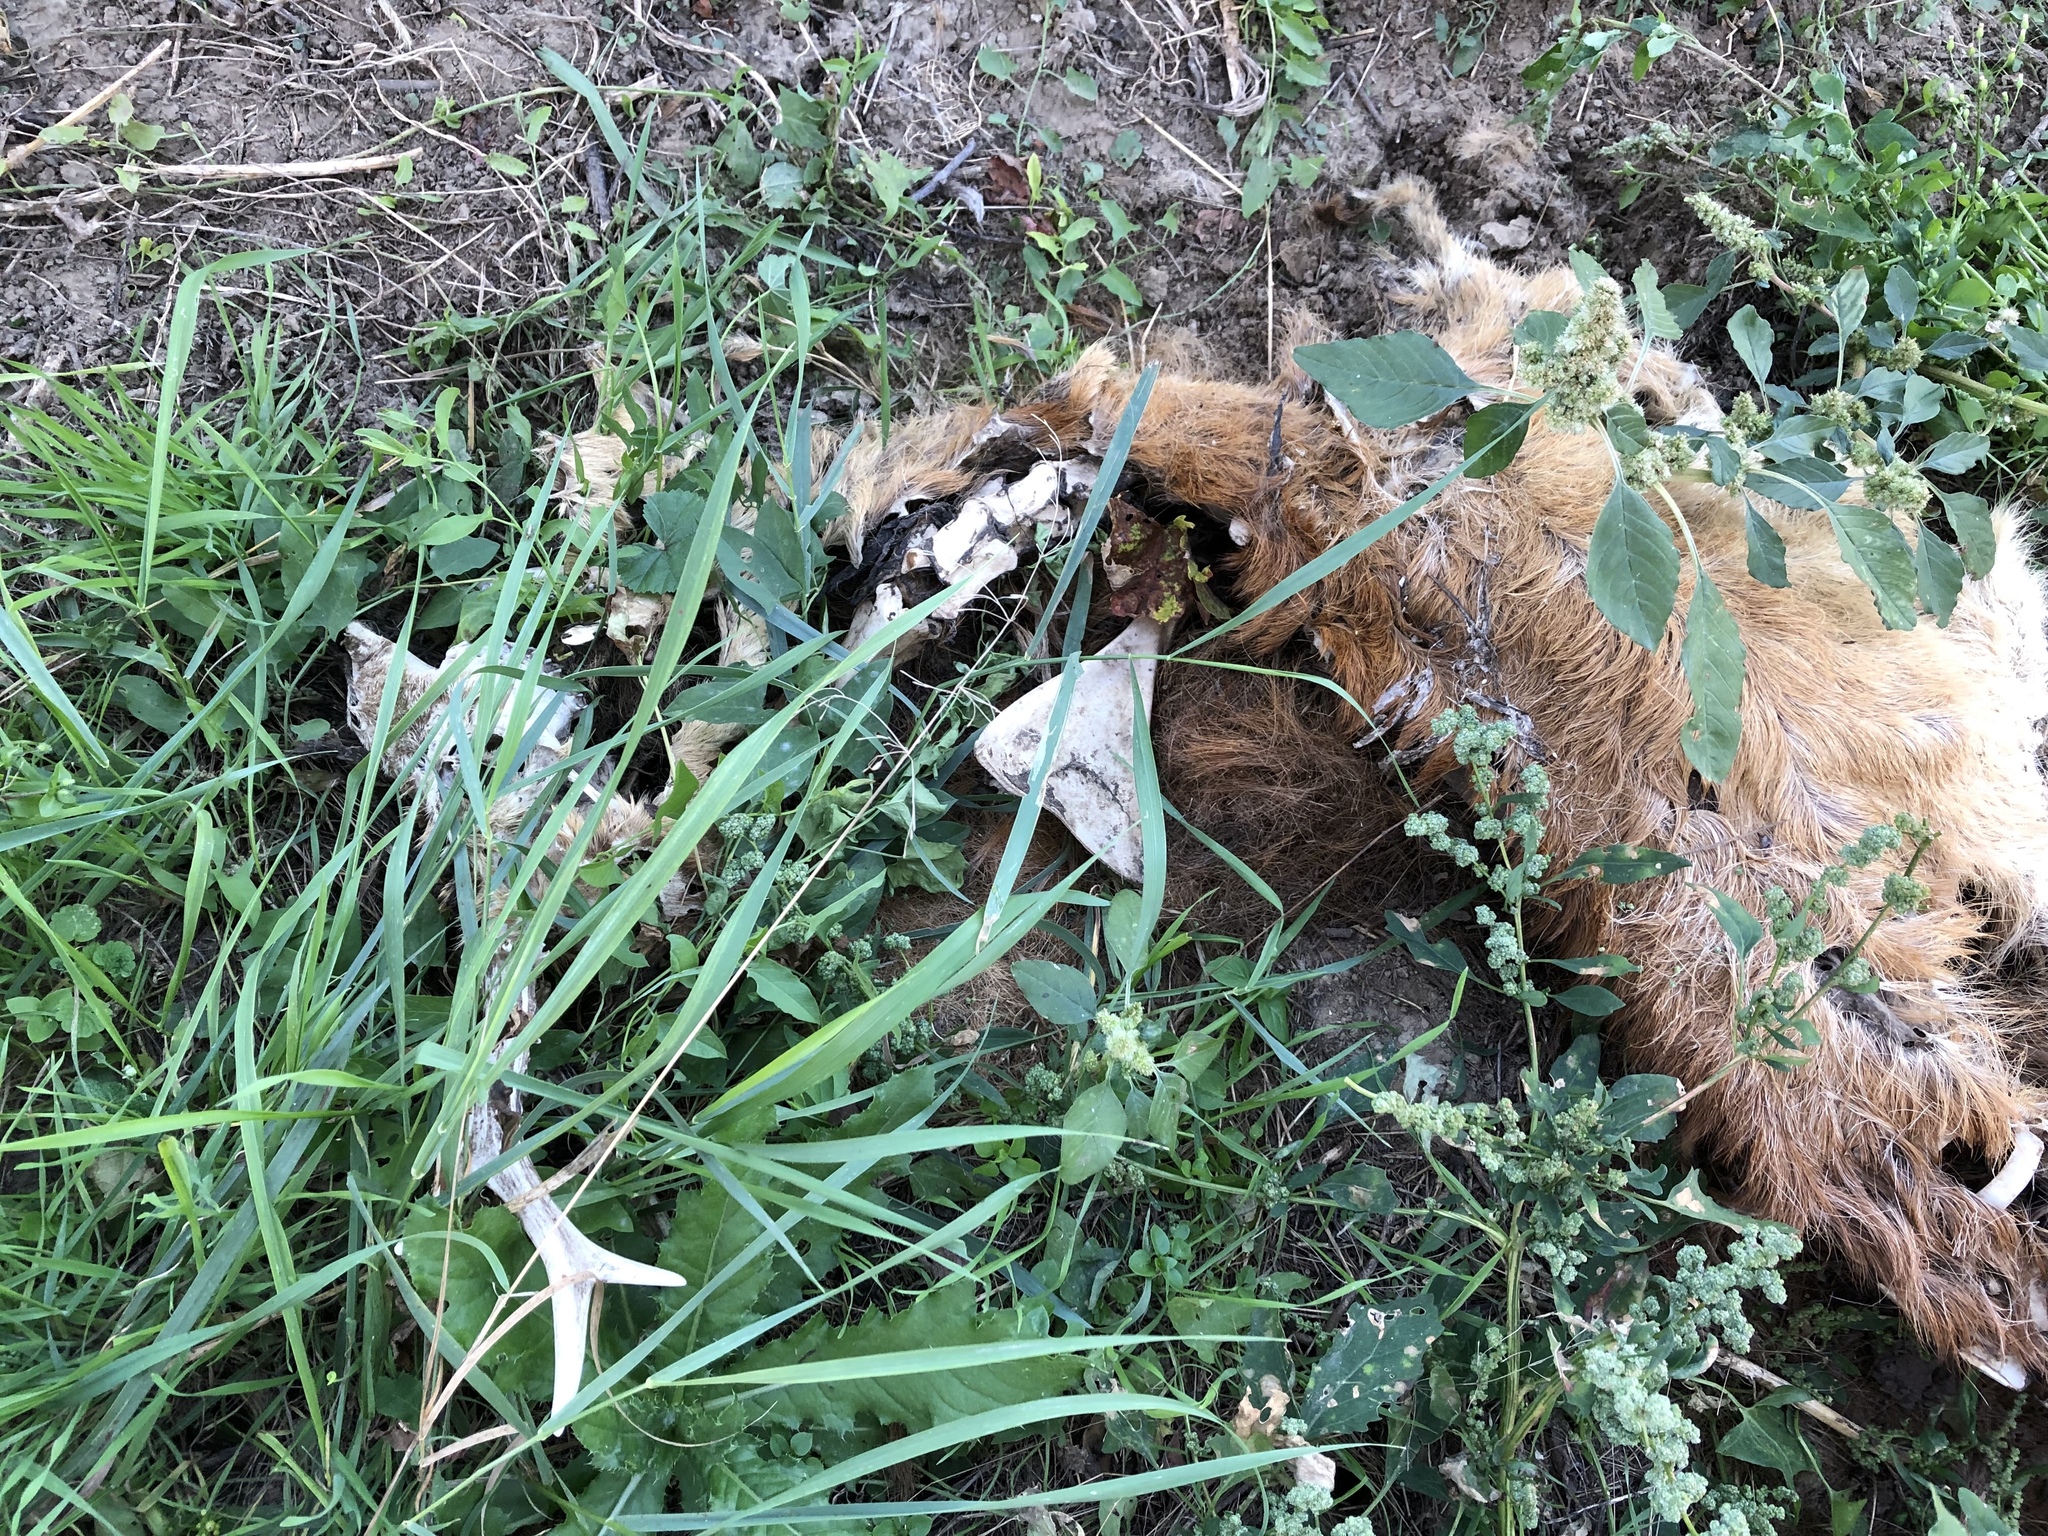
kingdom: Animalia
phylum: Chordata
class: Mammalia
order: Artiodactyla
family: Cervidae
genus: Capreolus
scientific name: Capreolus capreolus
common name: Western roe deer
